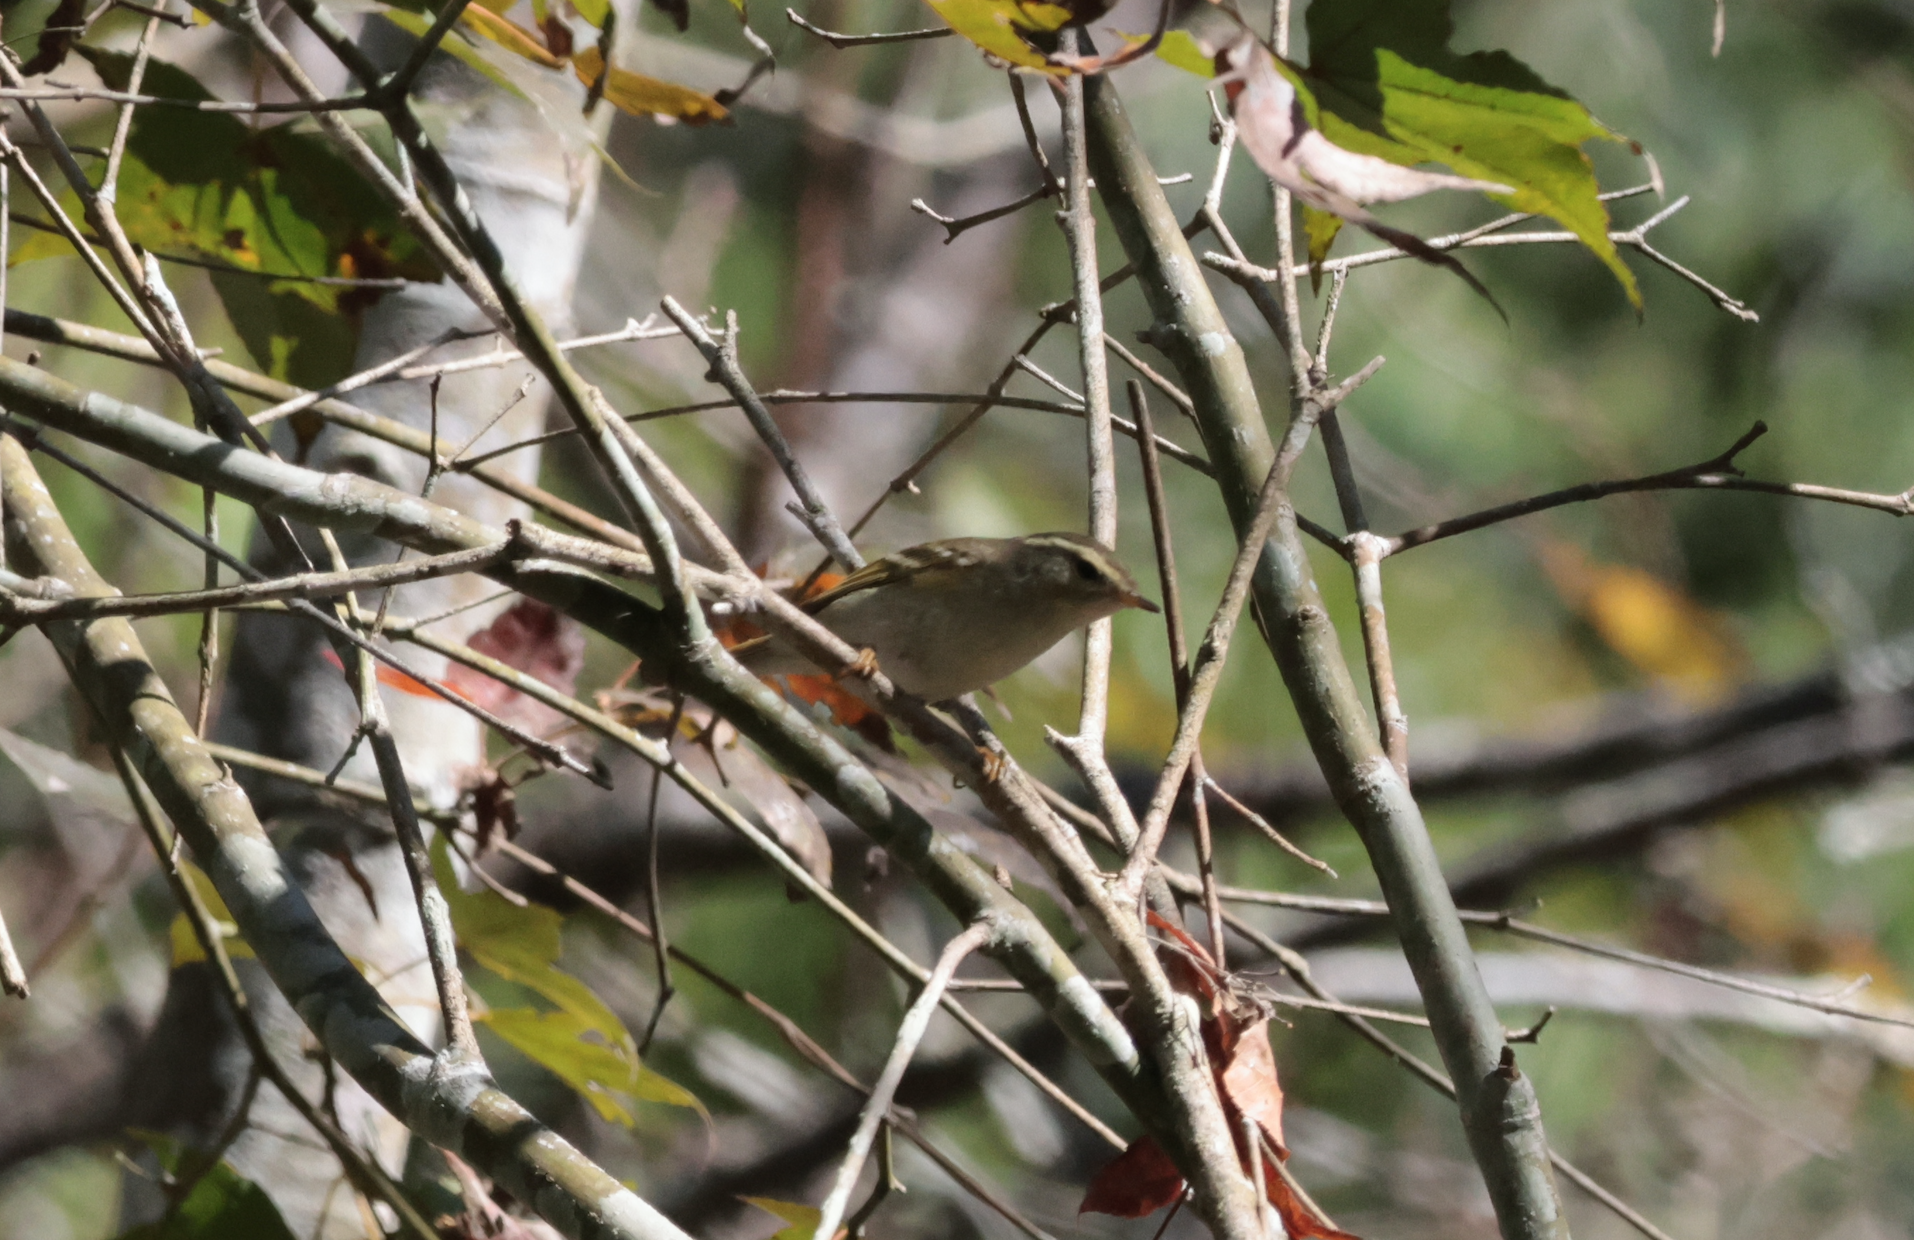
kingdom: Animalia
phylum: Chordata
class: Aves
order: Passeriformes
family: Phylloscopidae
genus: Phylloscopus
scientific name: Phylloscopus inornatus
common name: Yellow-browed warbler
